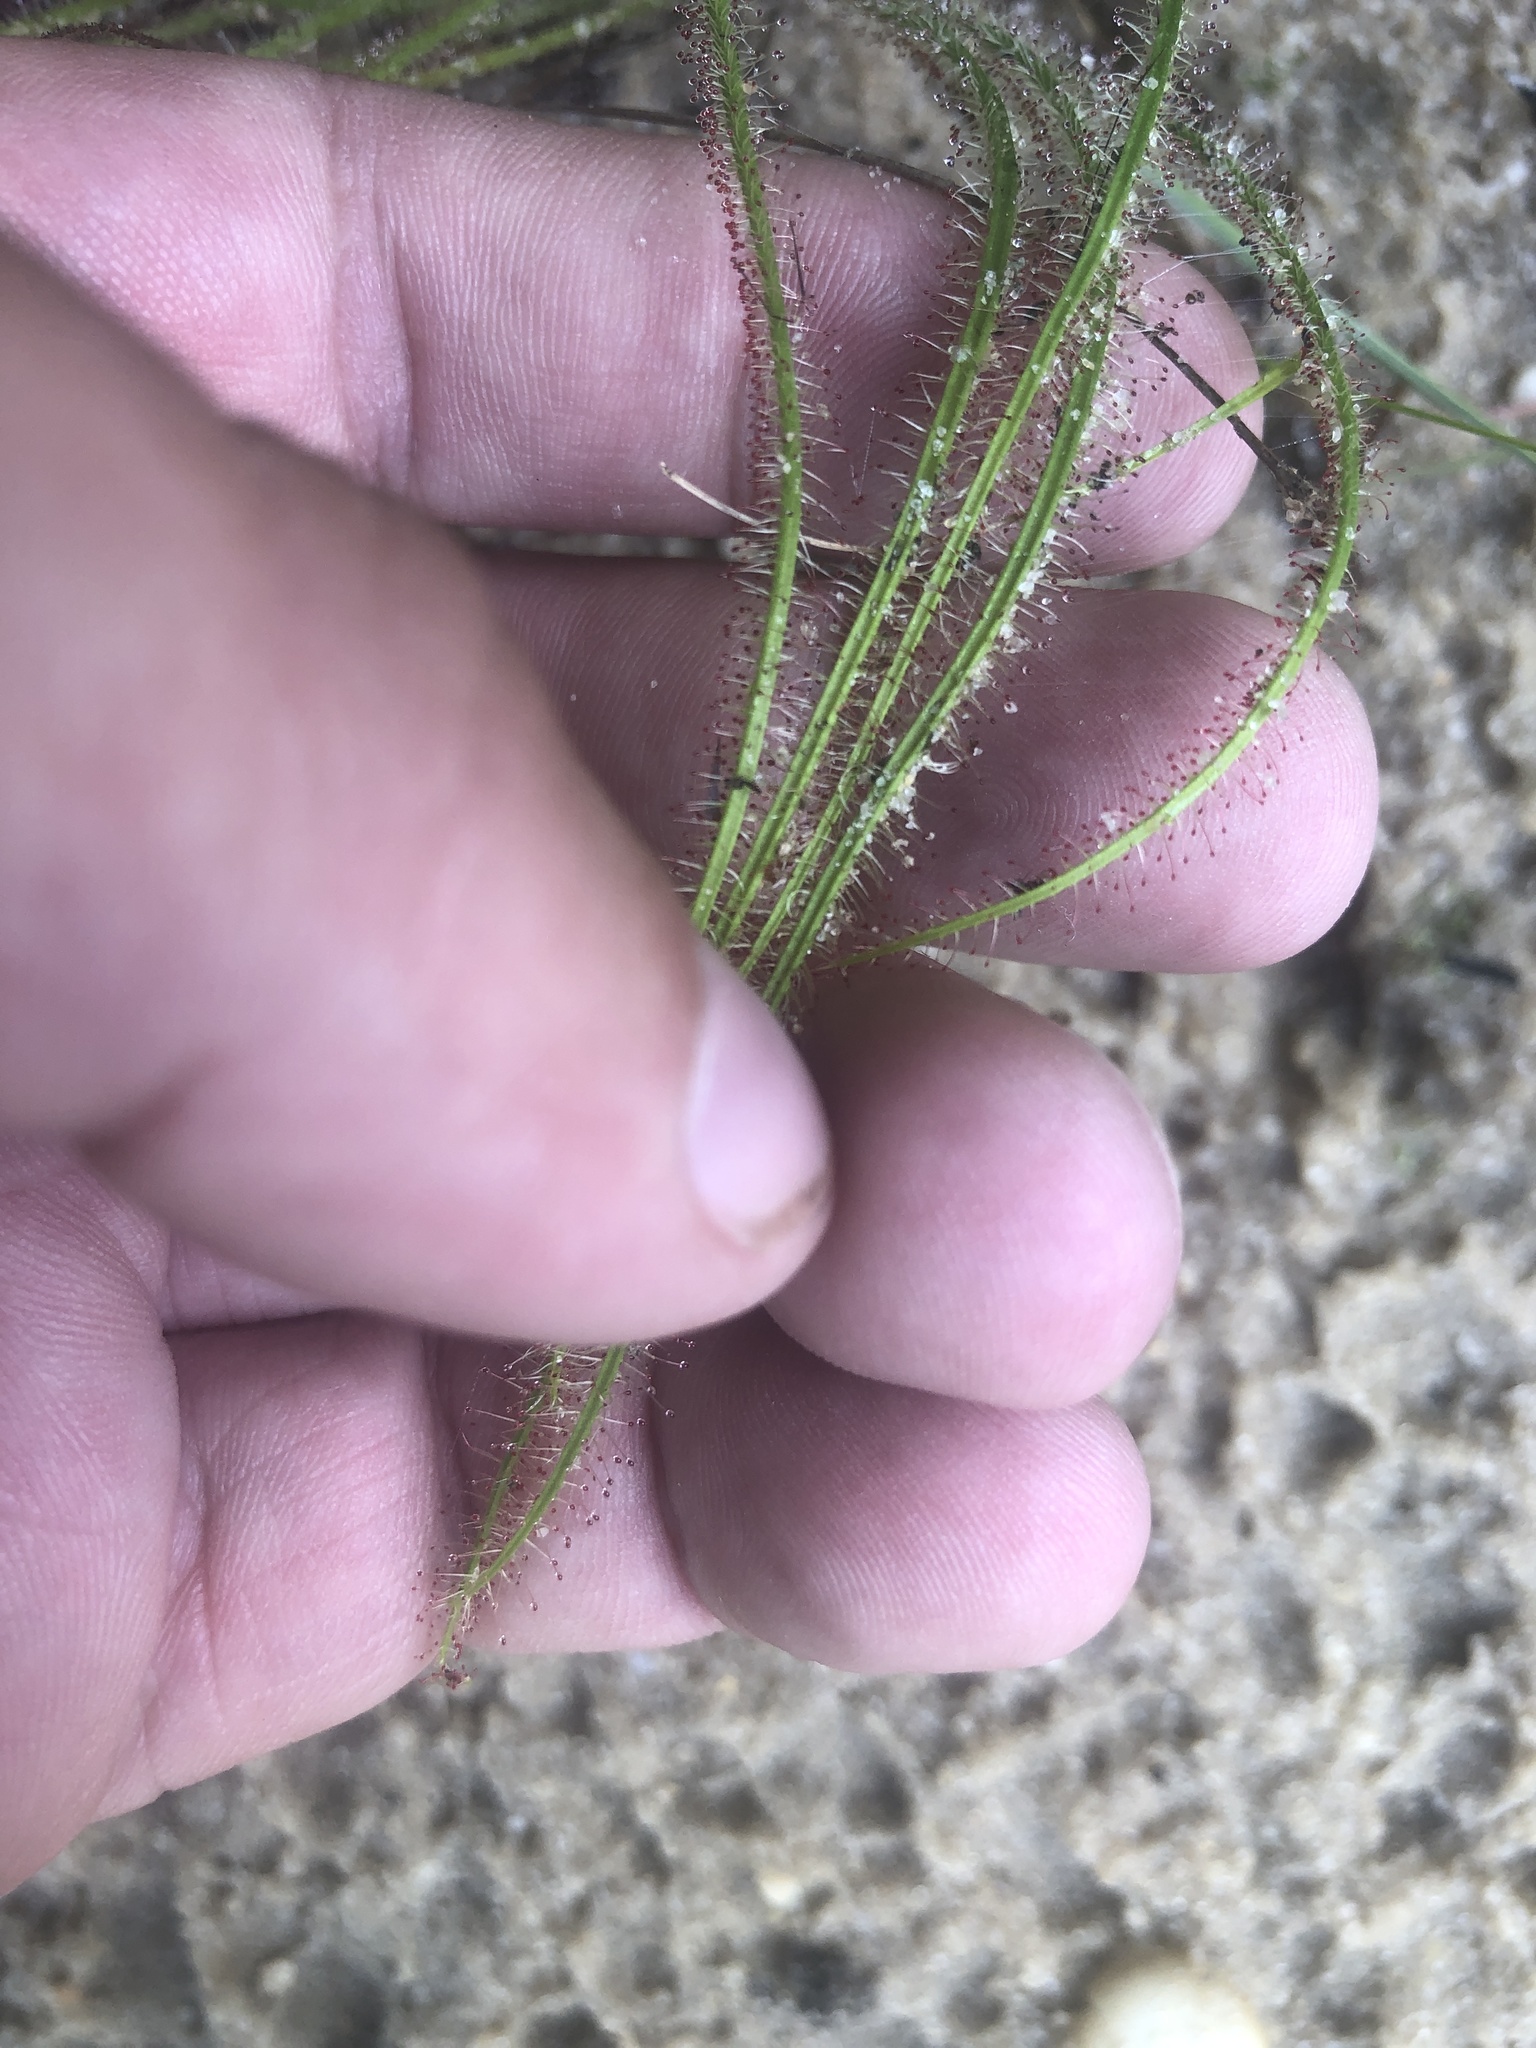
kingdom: Plantae
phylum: Tracheophyta
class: Magnoliopsida
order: Caryophyllales
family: Droseraceae
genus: Drosera
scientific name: Drosera filiformis
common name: Dew-thread
